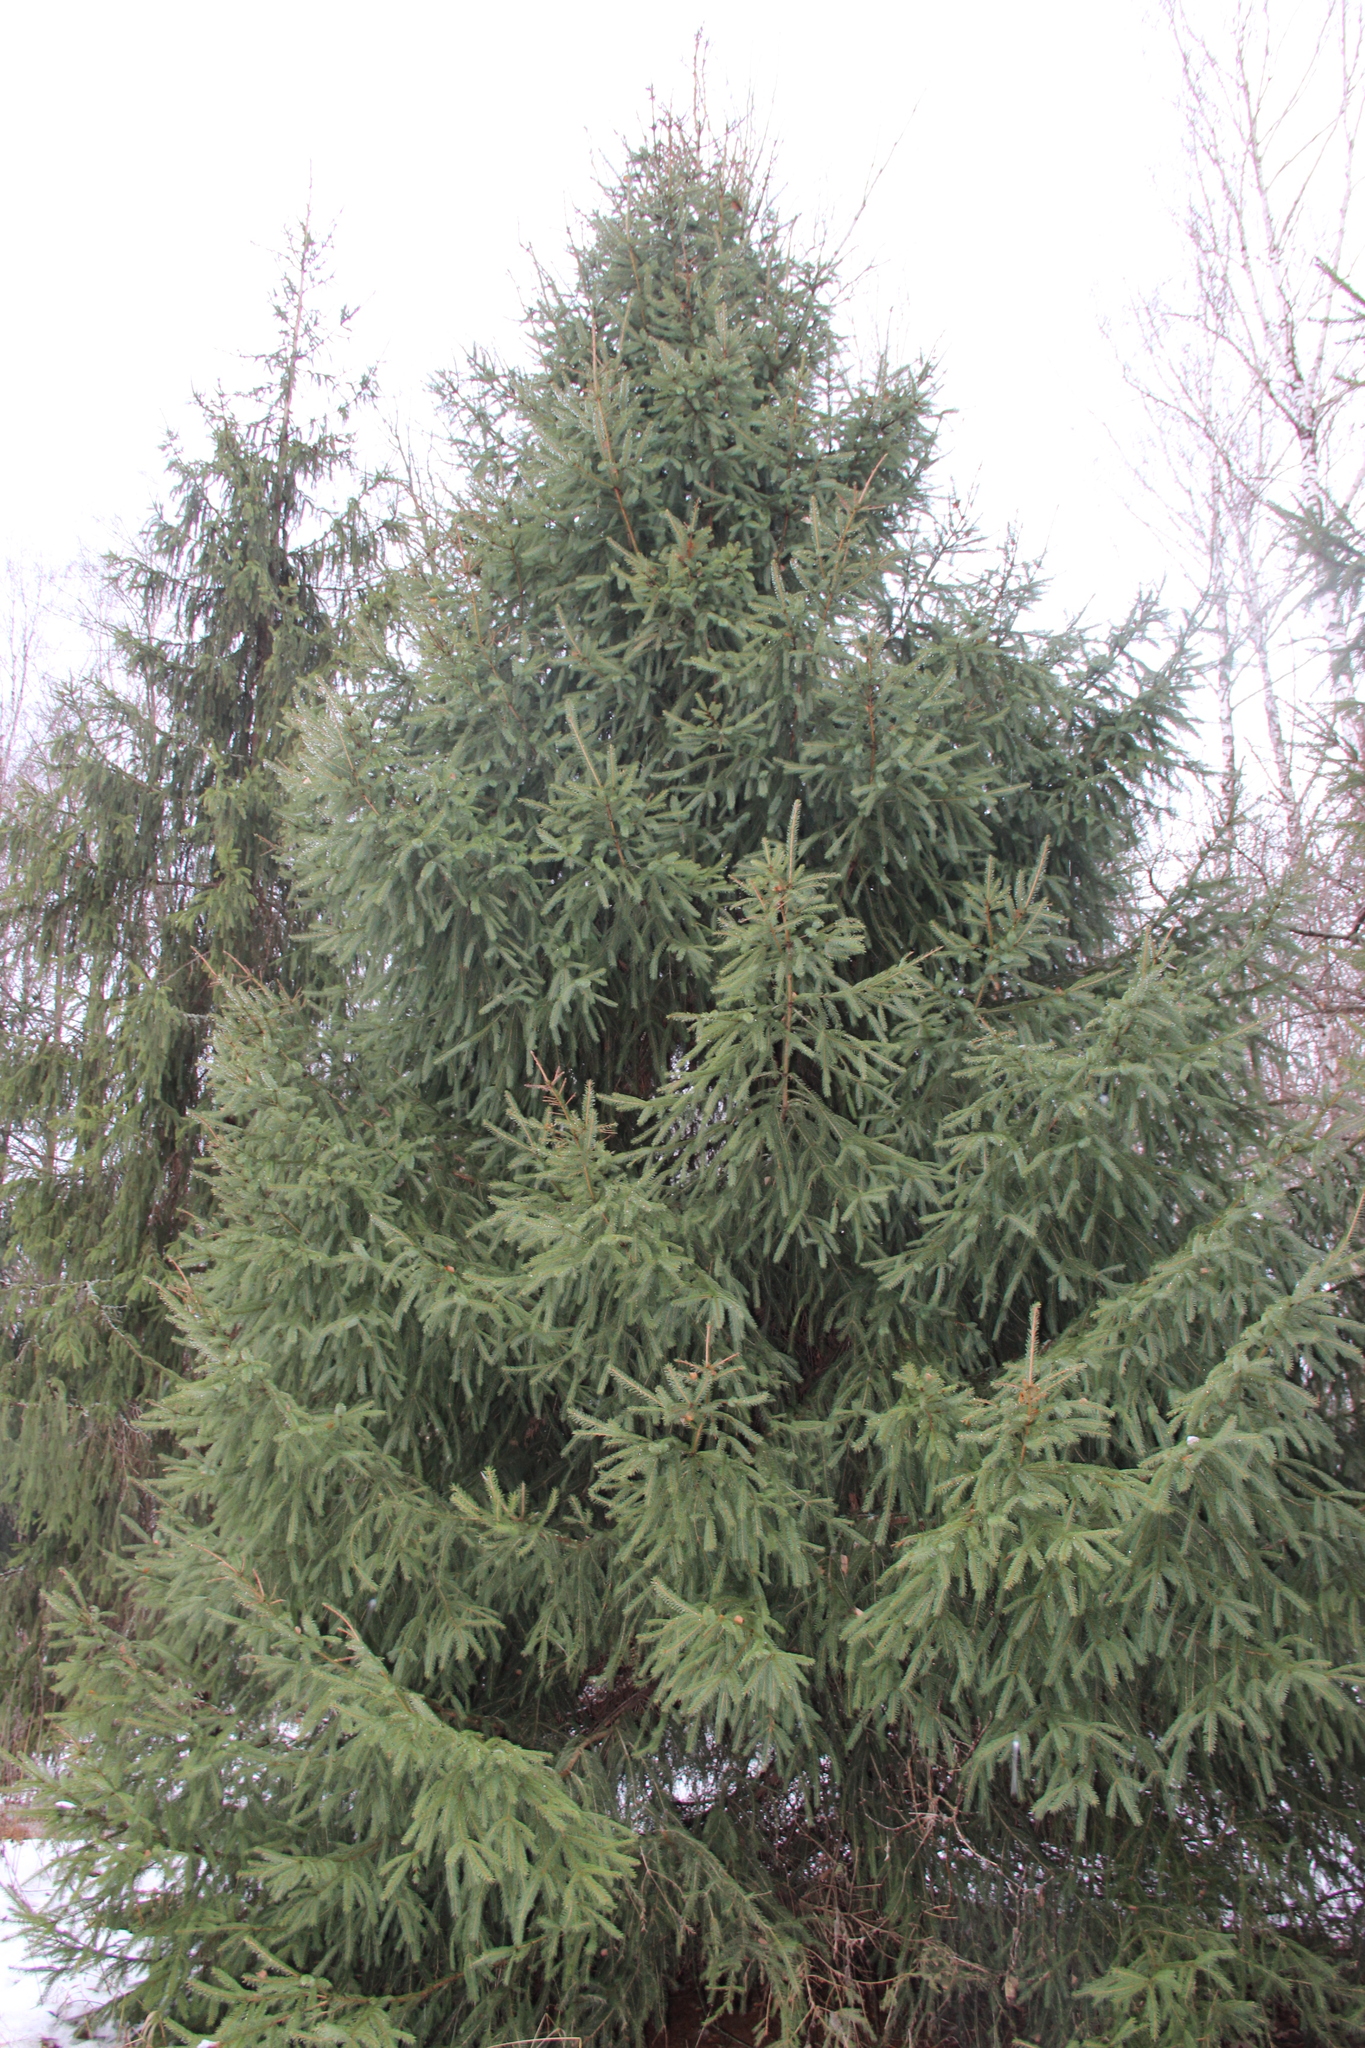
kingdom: Plantae
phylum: Tracheophyta
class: Pinopsida
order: Pinales
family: Pinaceae
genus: Picea
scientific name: Picea abies
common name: Norway spruce
